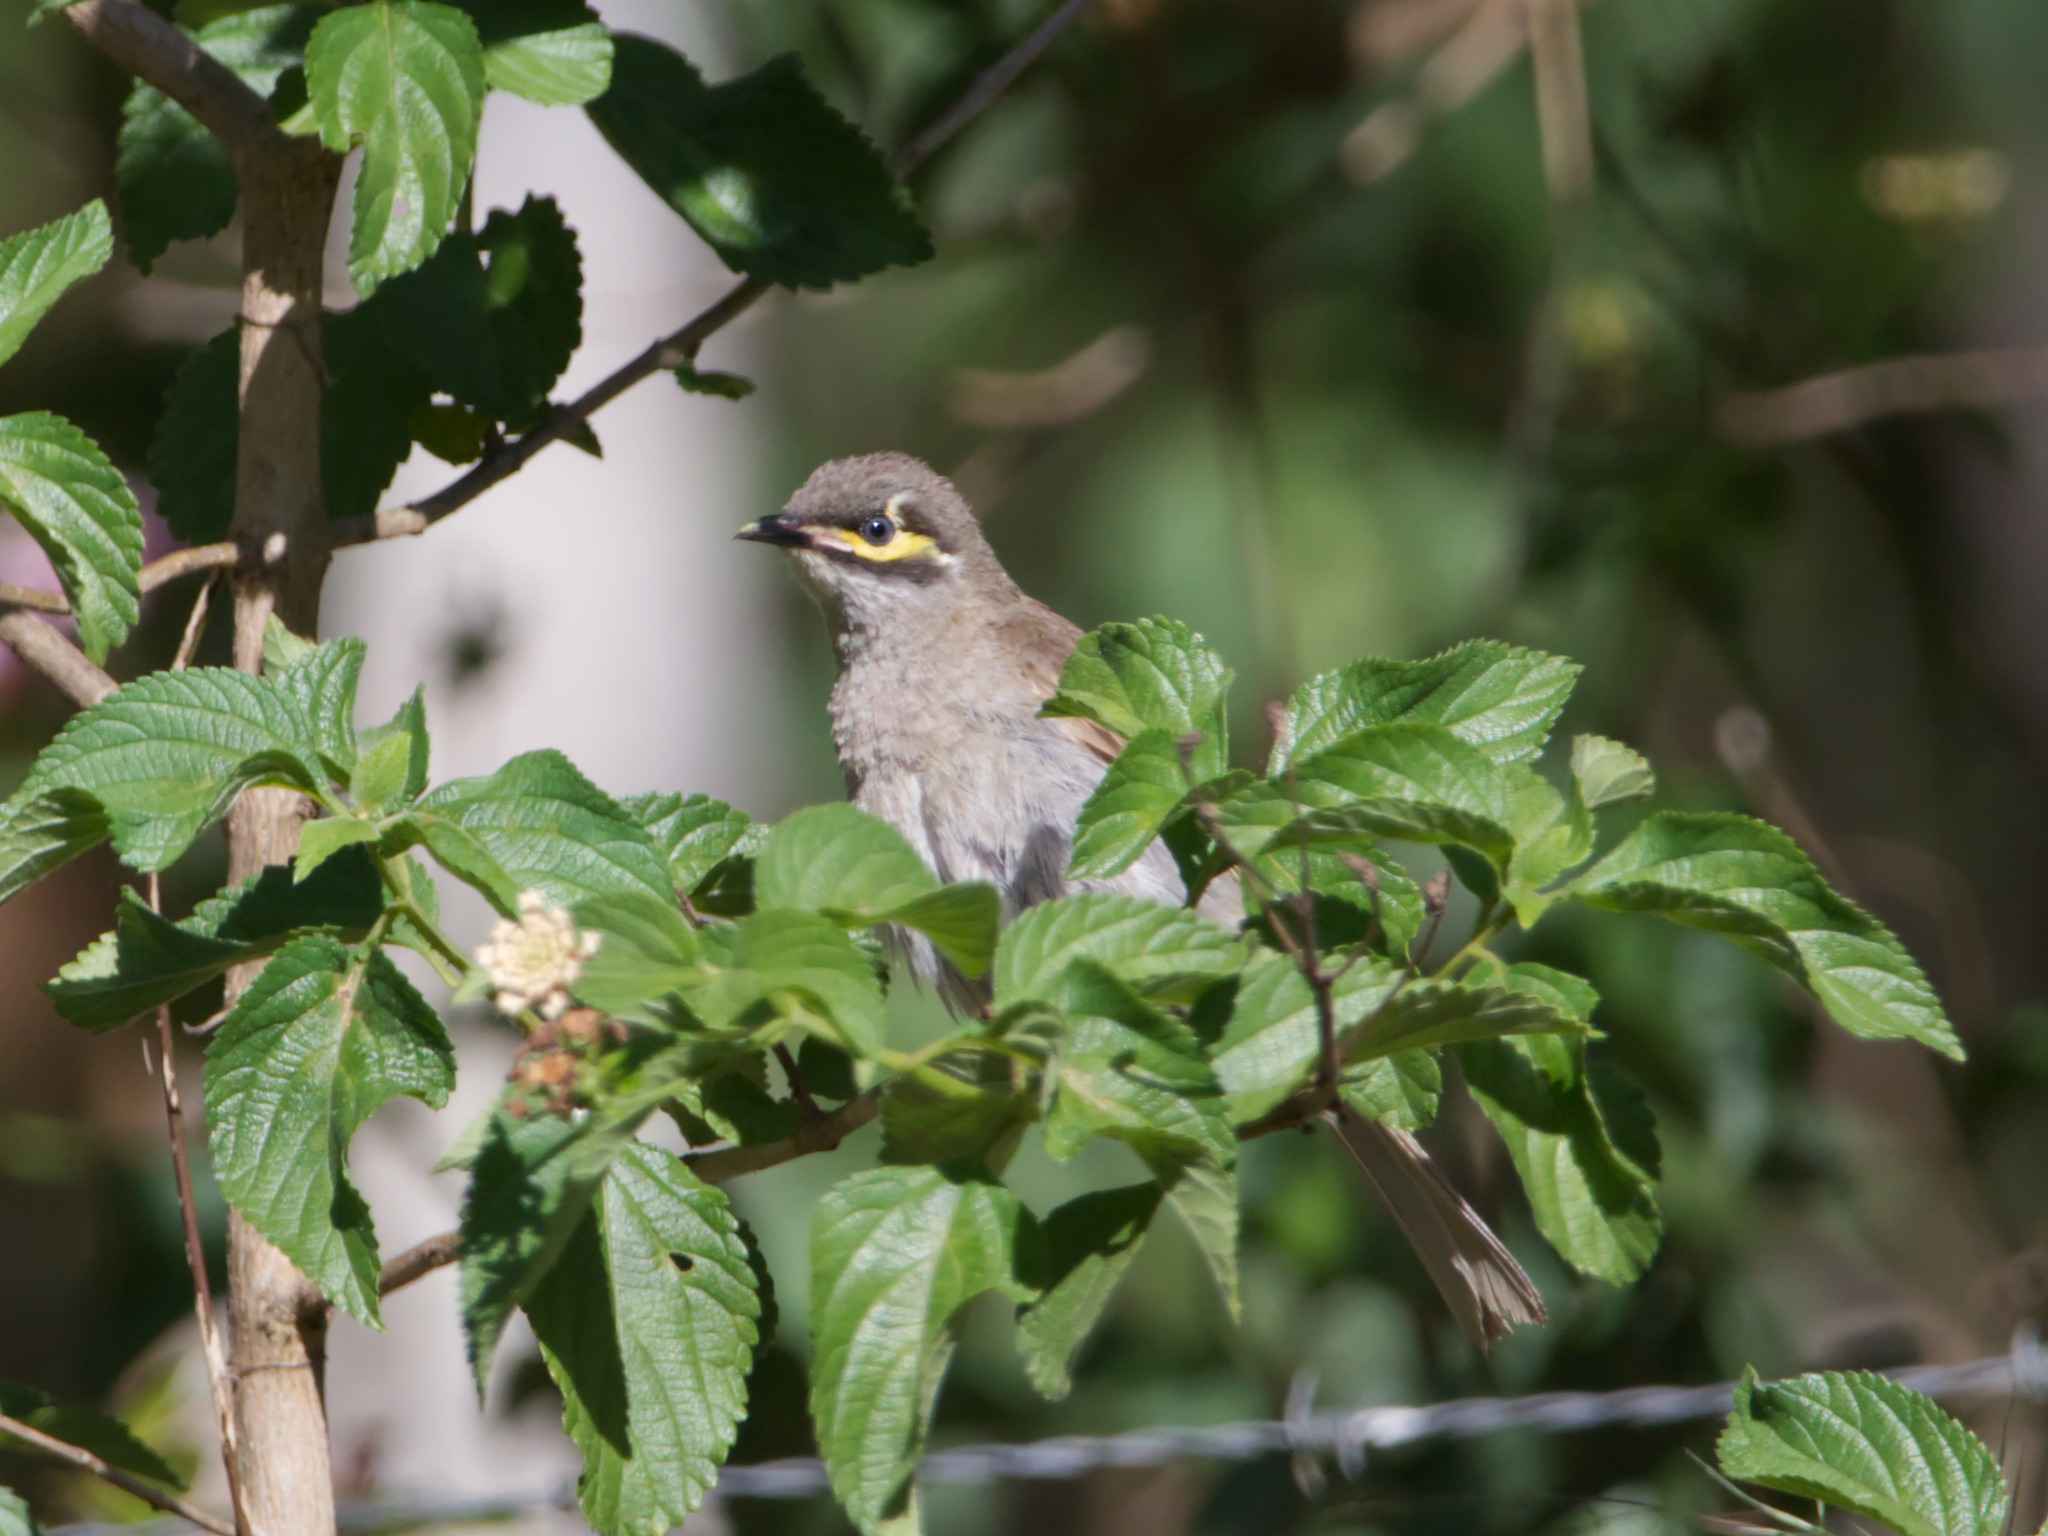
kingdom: Animalia
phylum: Chordata
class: Aves
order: Passeriformes
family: Meliphagidae
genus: Caligavis
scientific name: Caligavis chrysops
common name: Yellow-faced honeyeater
